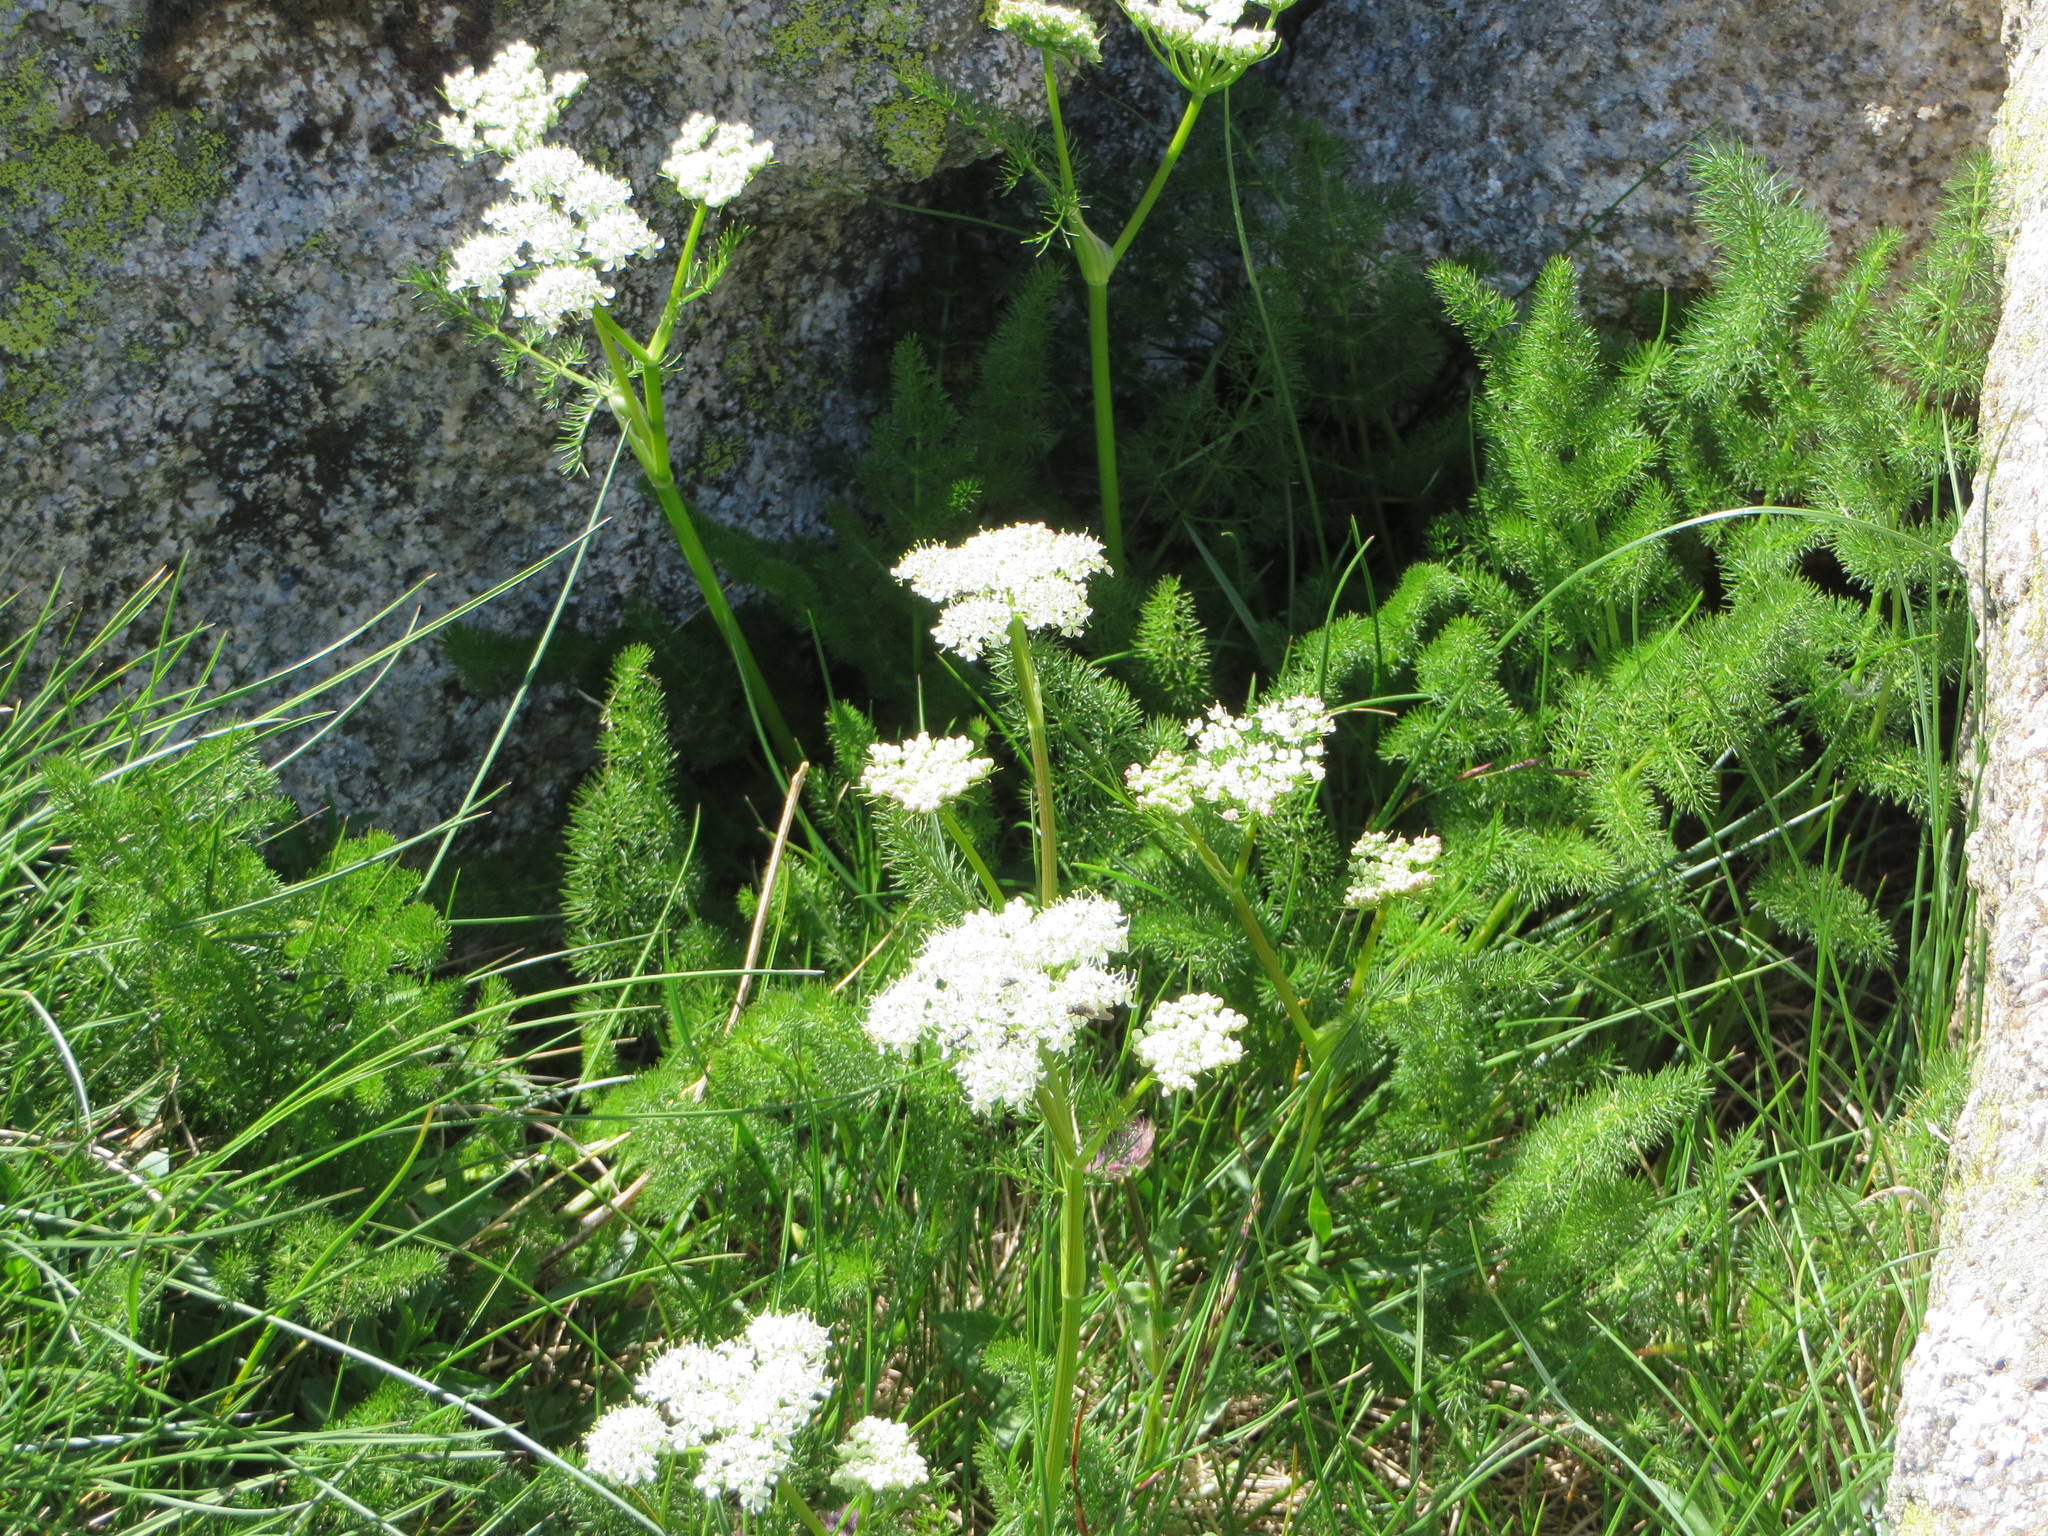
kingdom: Plantae
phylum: Tracheophyta
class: Magnoliopsida
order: Apiales
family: Apiaceae
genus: Meum
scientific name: Meum athamanticum
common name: Spignel
